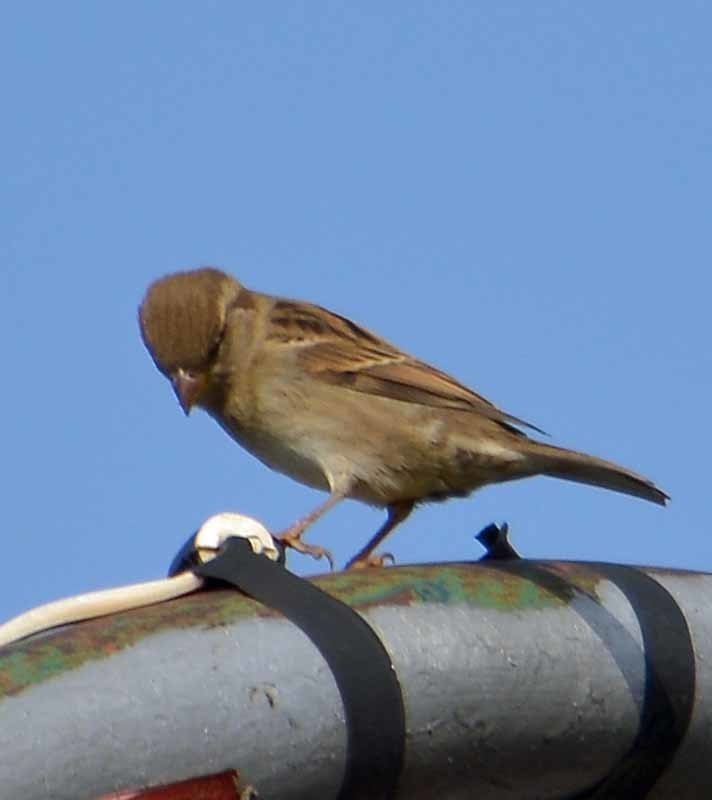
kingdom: Animalia
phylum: Chordata
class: Aves
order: Passeriformes
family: Passeridae
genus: Passer
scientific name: Passer domesticus
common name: House sparrow
